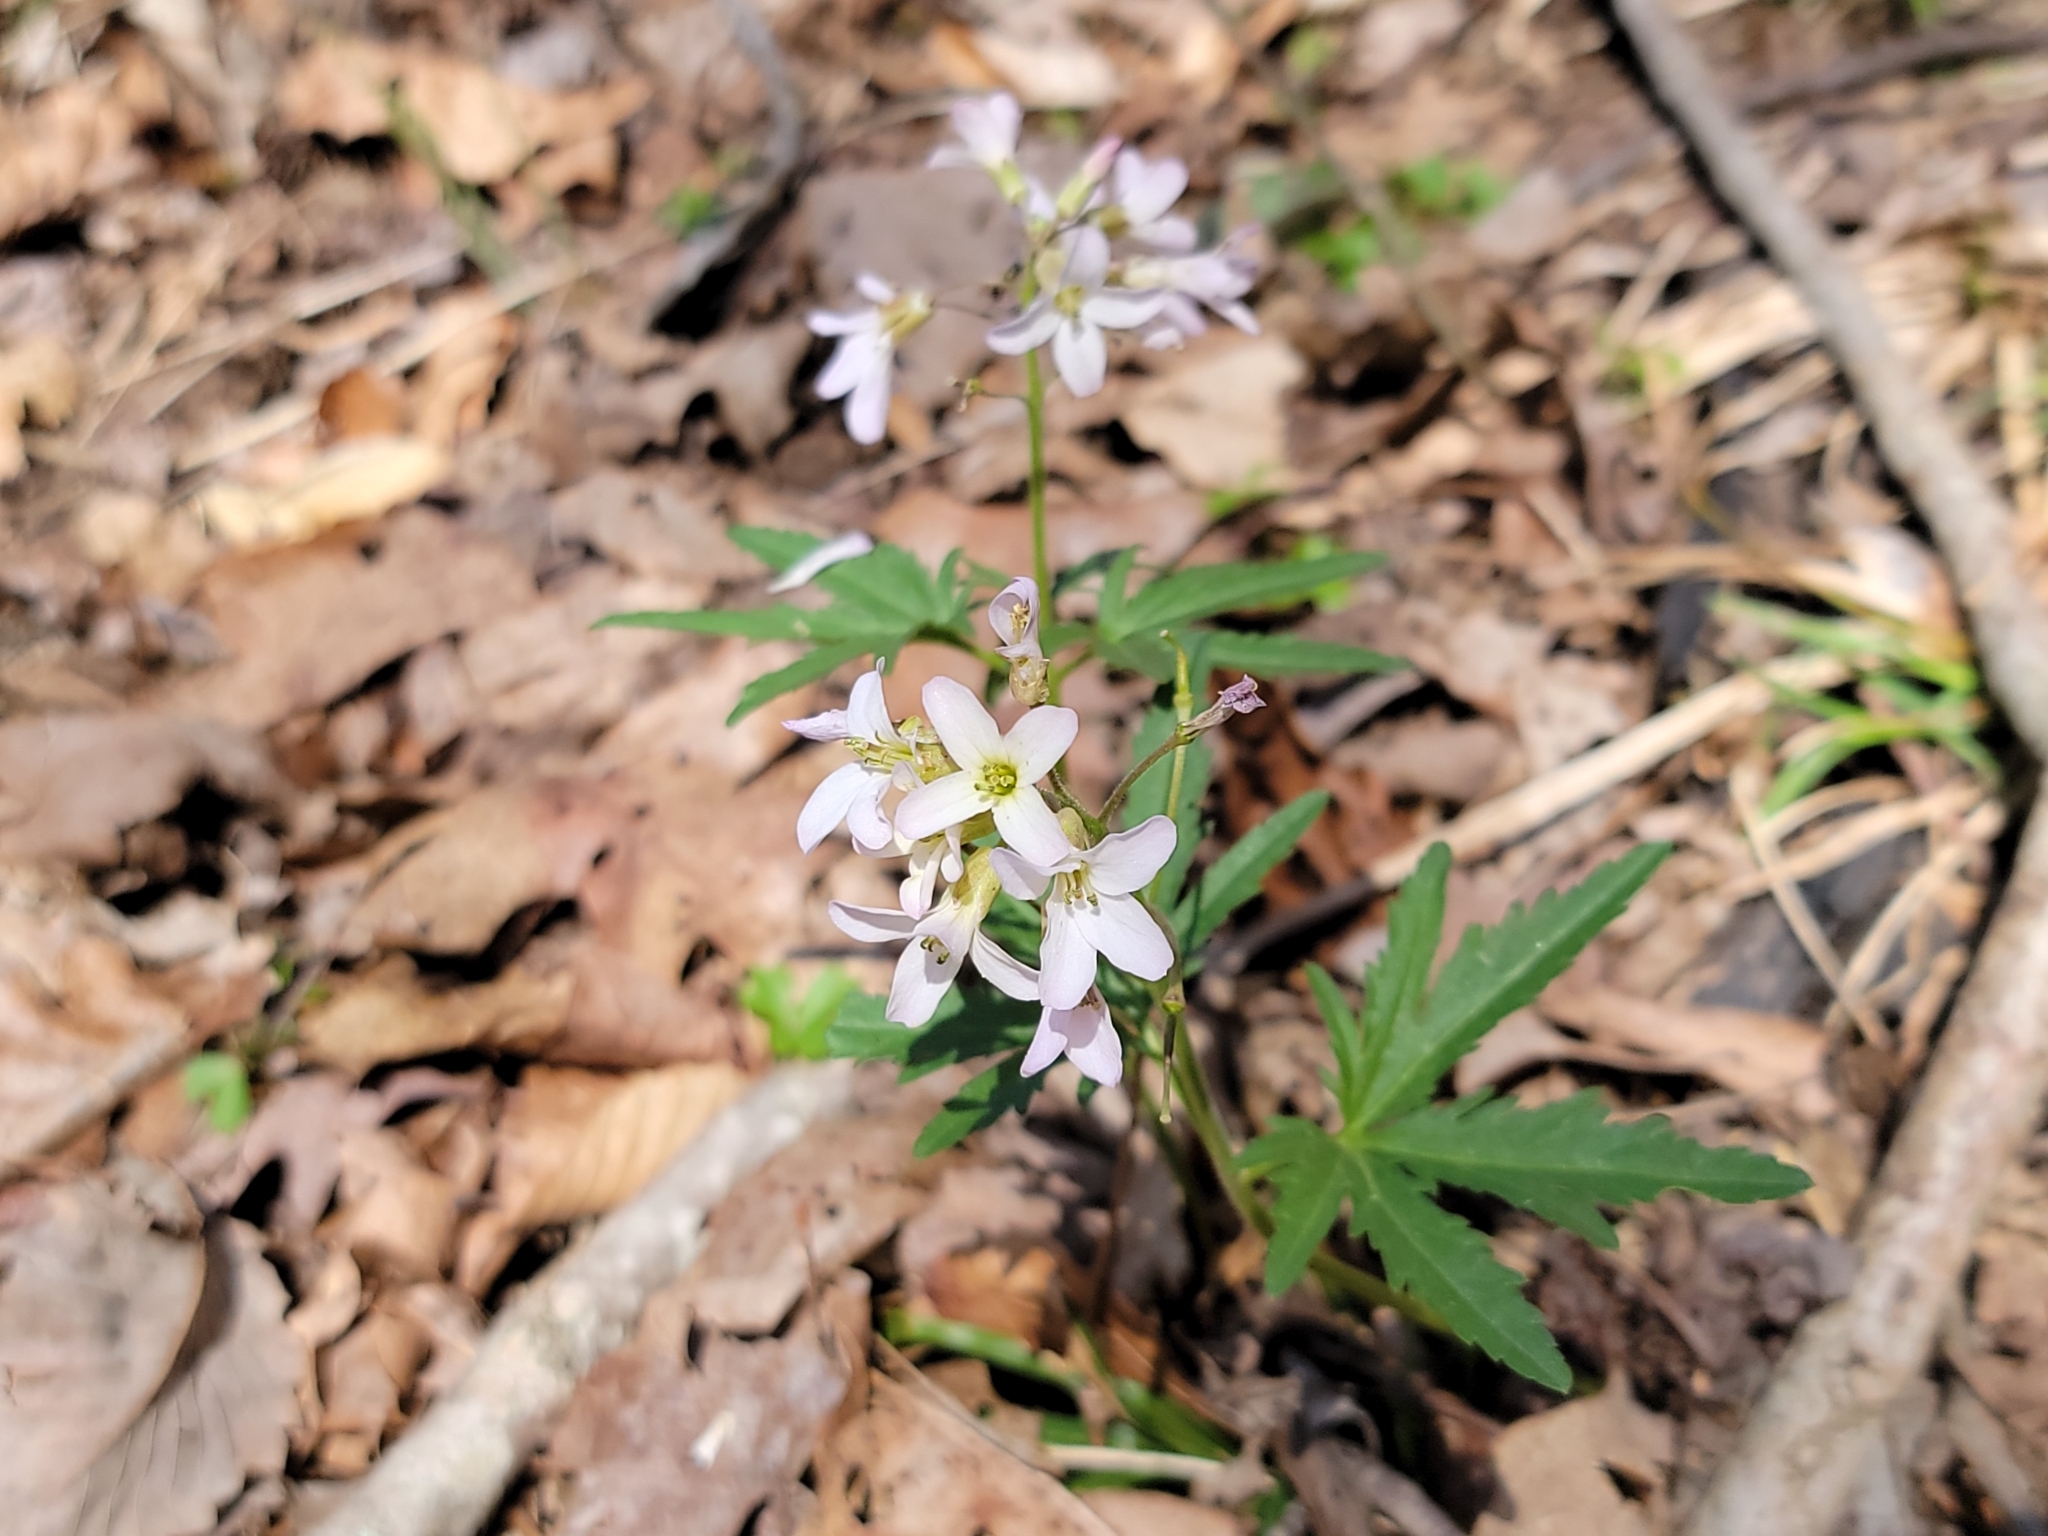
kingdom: Plantae
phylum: Tracheophyta
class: Magnoliopsida
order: Brassicales
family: Brassicaceae
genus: Cardamine
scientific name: Cardamine concatenata
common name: Cut-leaf toothcup
